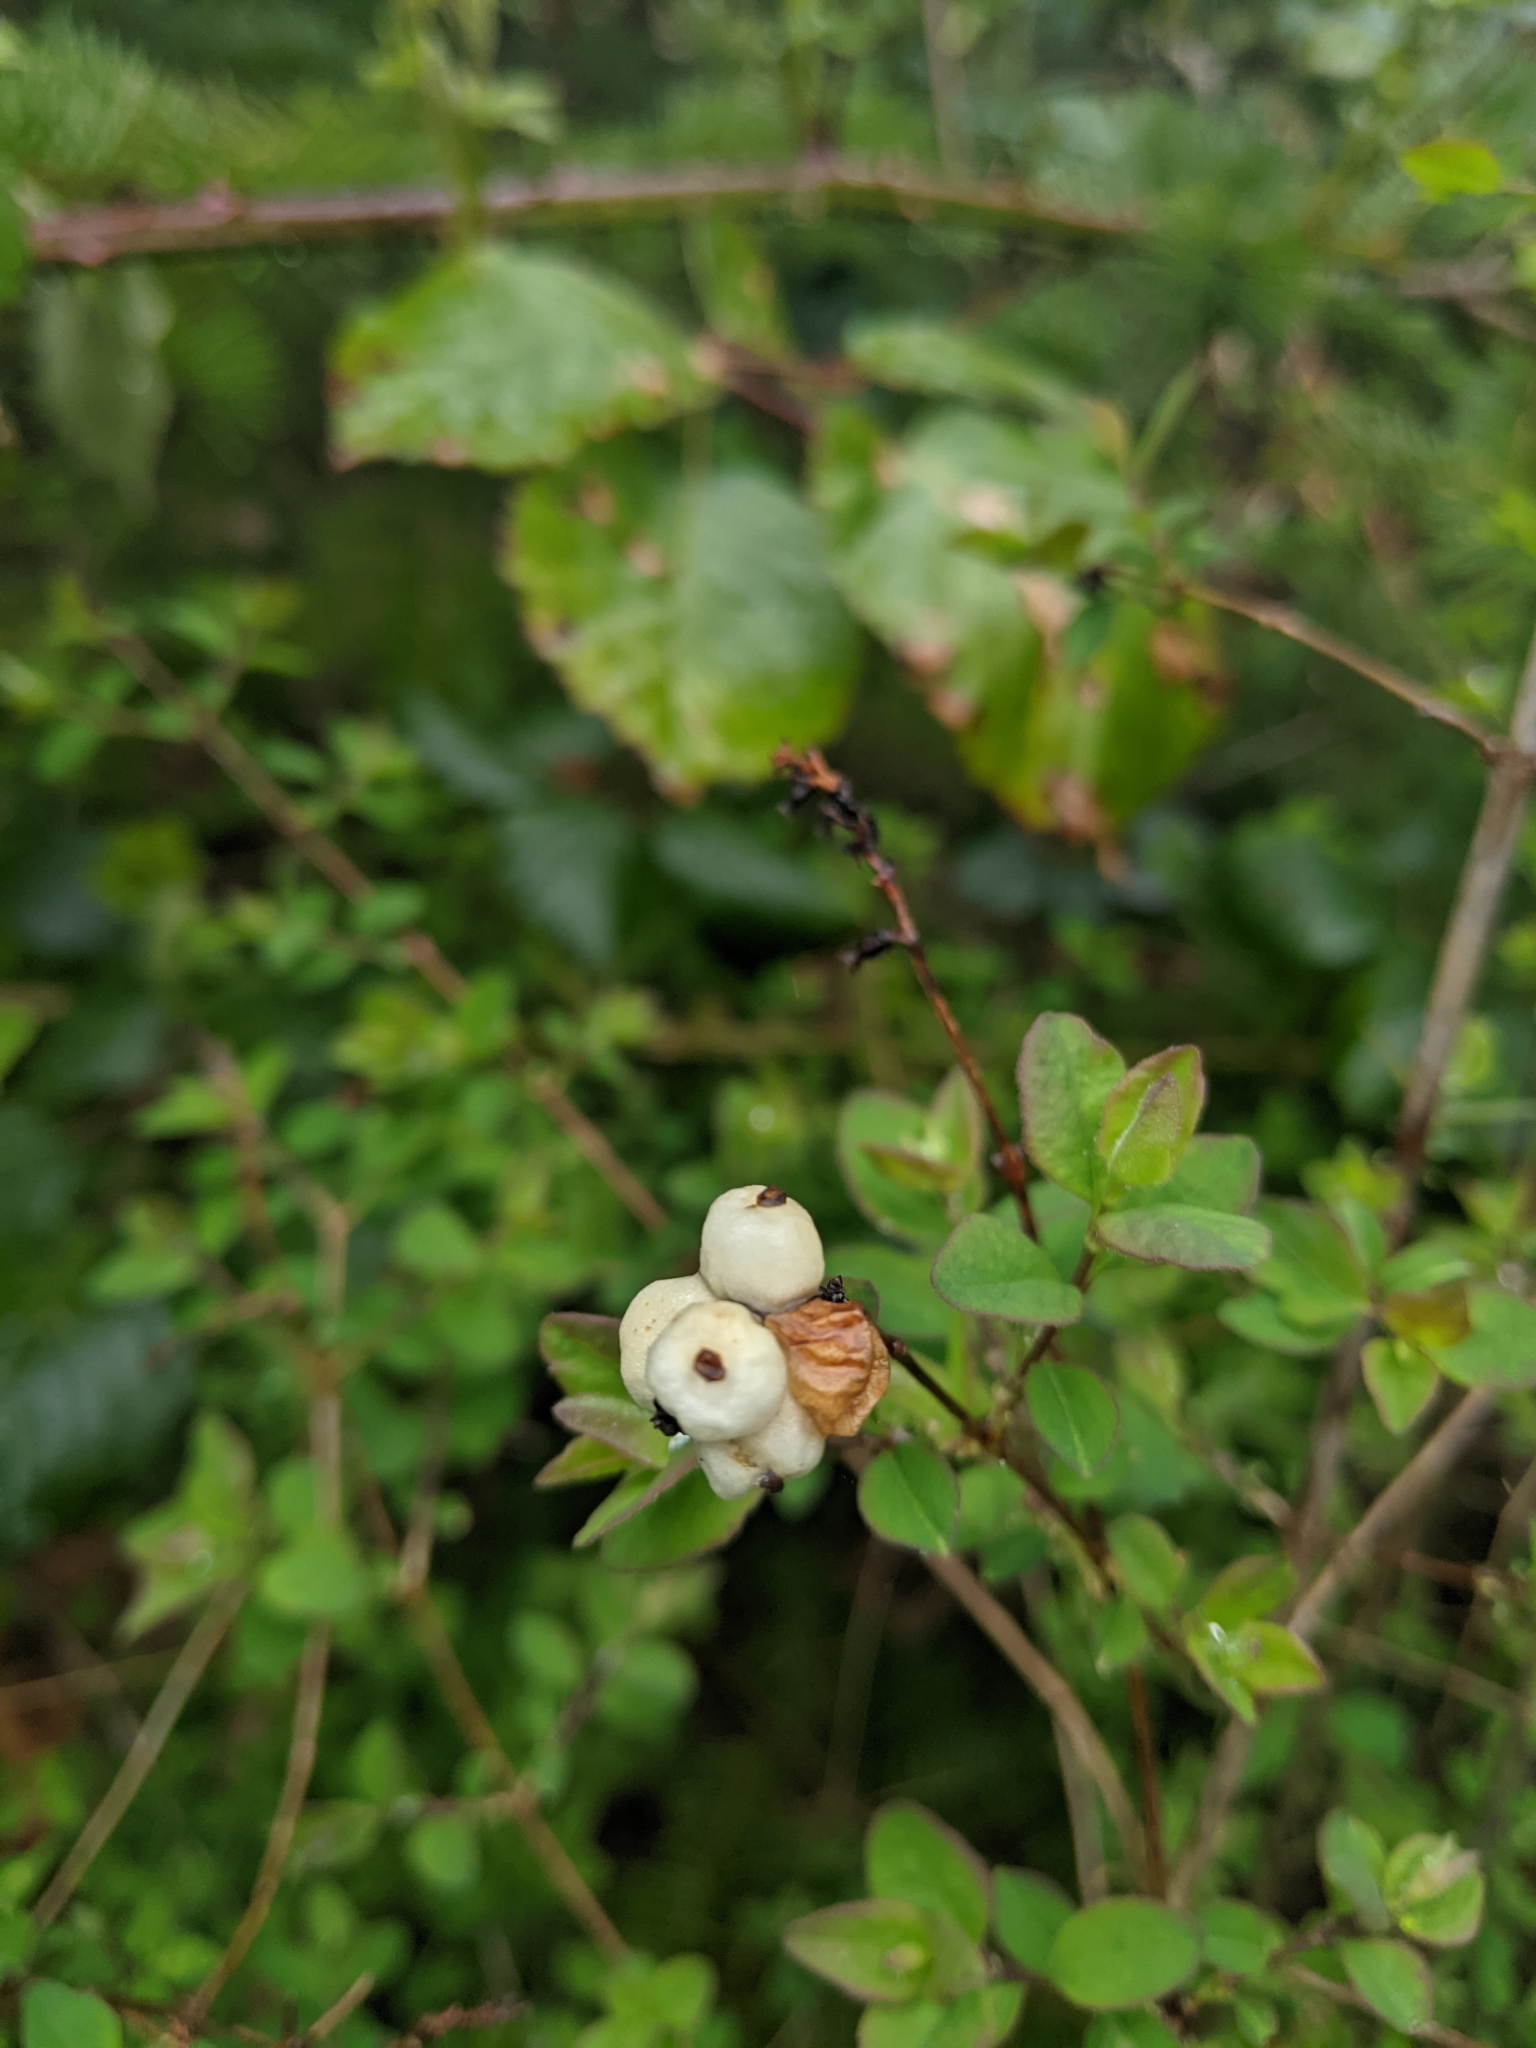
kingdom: Plantae
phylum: Tracheophyta
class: Magnoliopsida
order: Dipsacales
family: Caprifoliaceae
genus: Symphoricarpos
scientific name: Symphoricarpos albus
